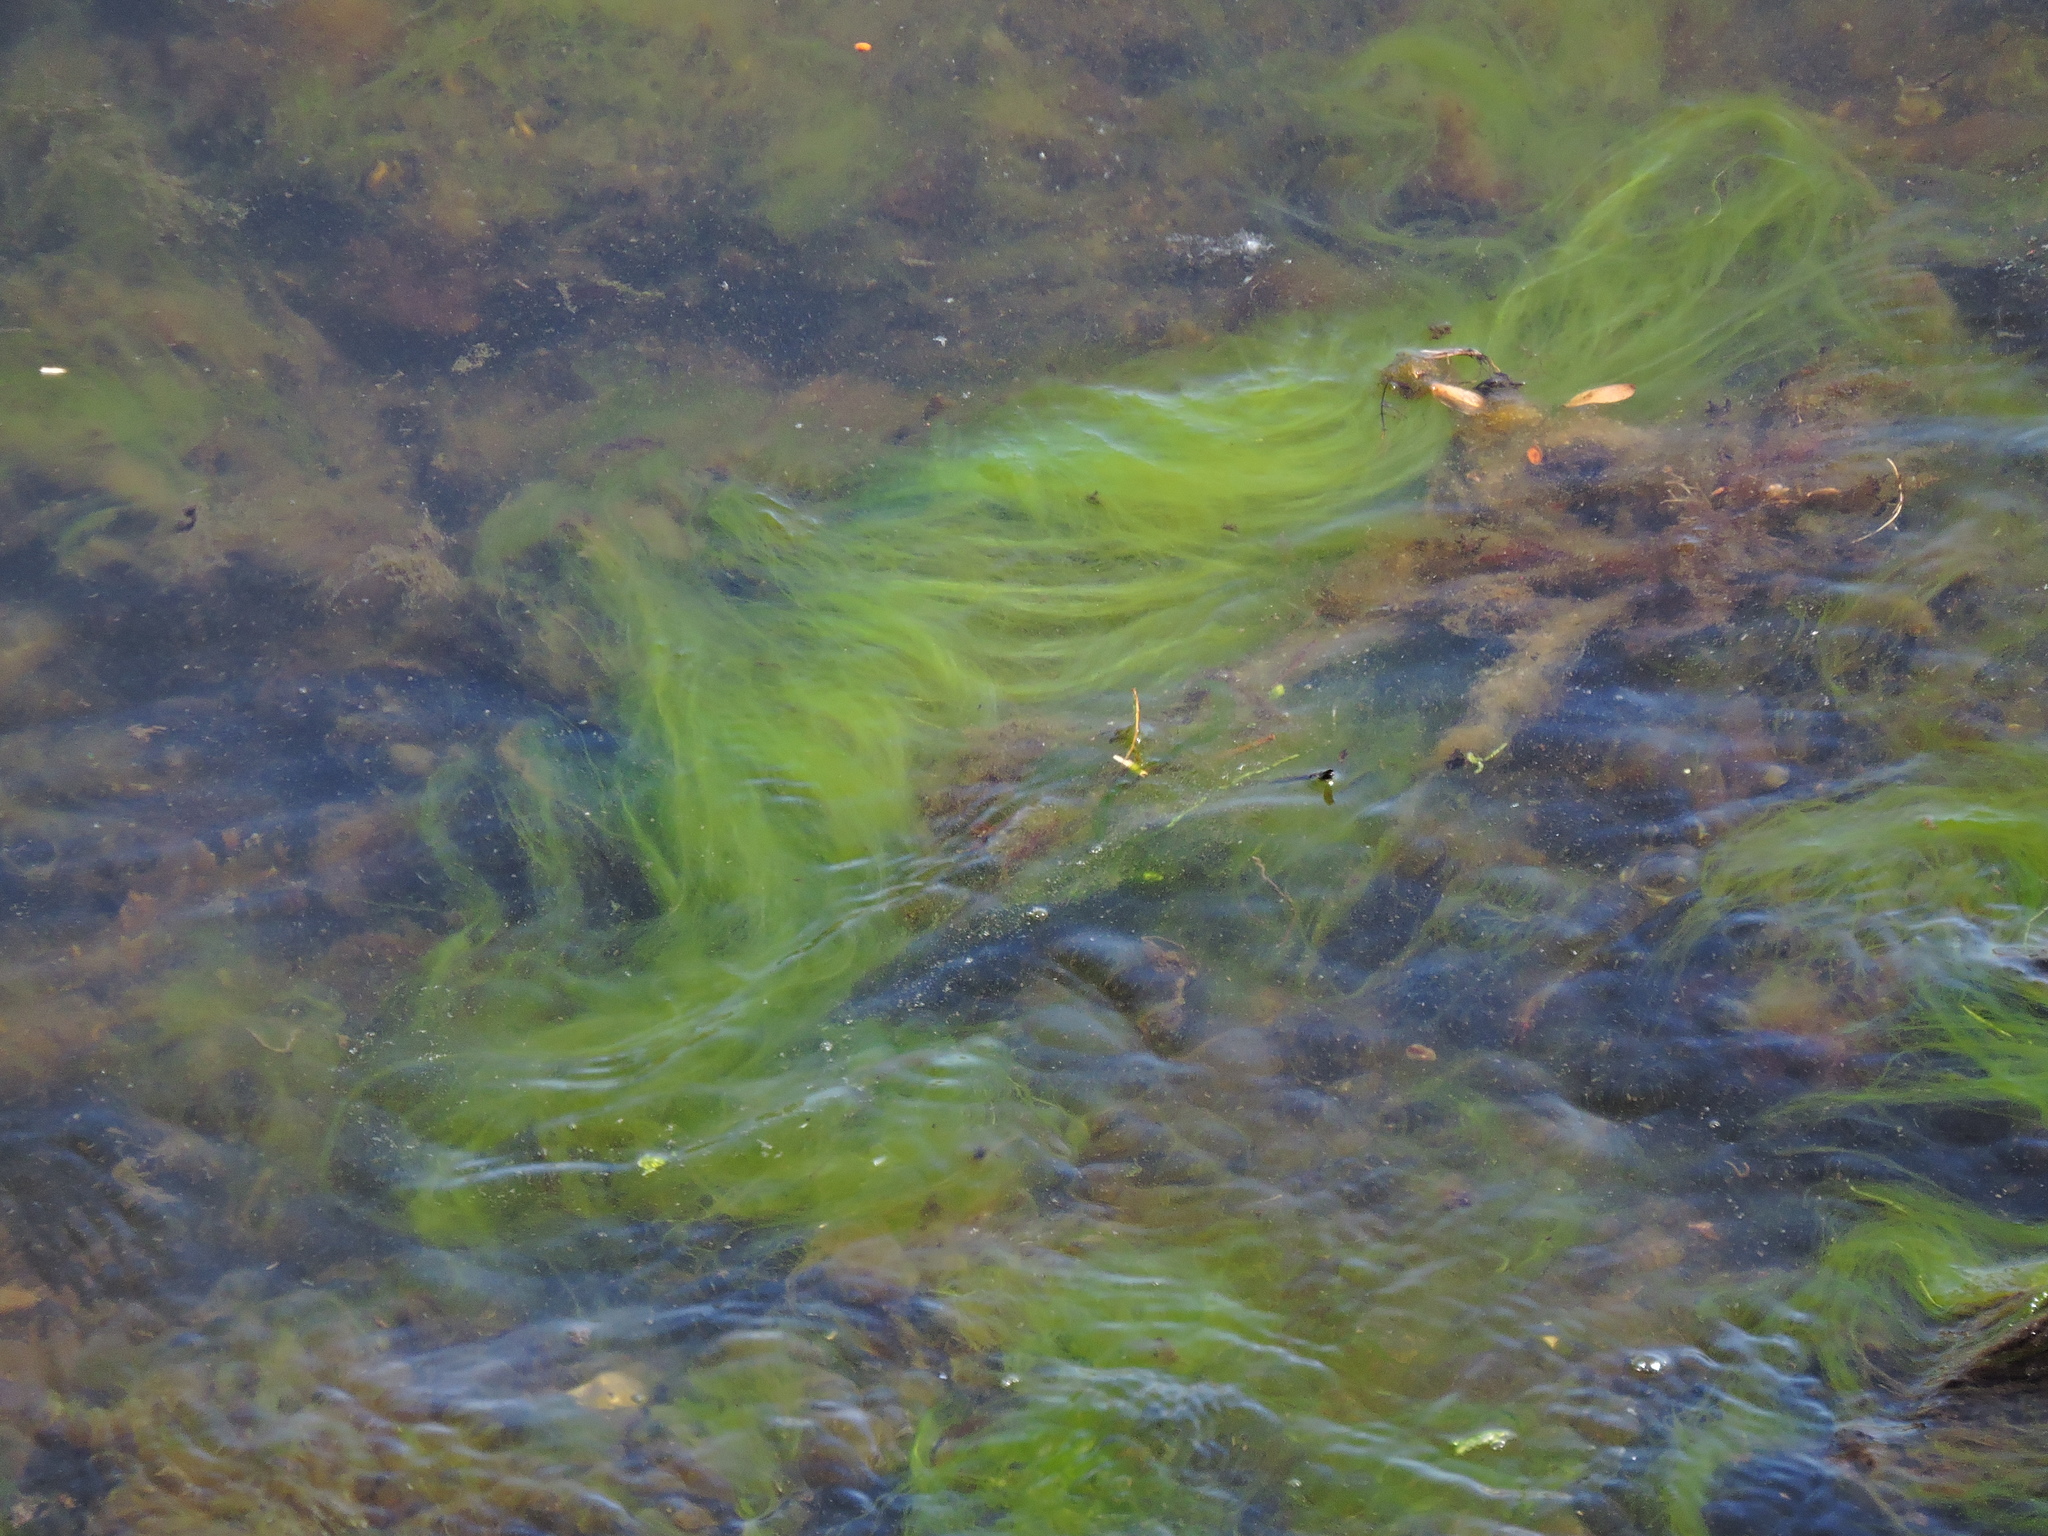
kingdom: Plantae
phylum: Chlorophyta
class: Ulvophyceae
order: Cladophorales
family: Cladophoraceae
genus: Cladophora
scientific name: Cladophora sericea
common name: Graceful green hair
